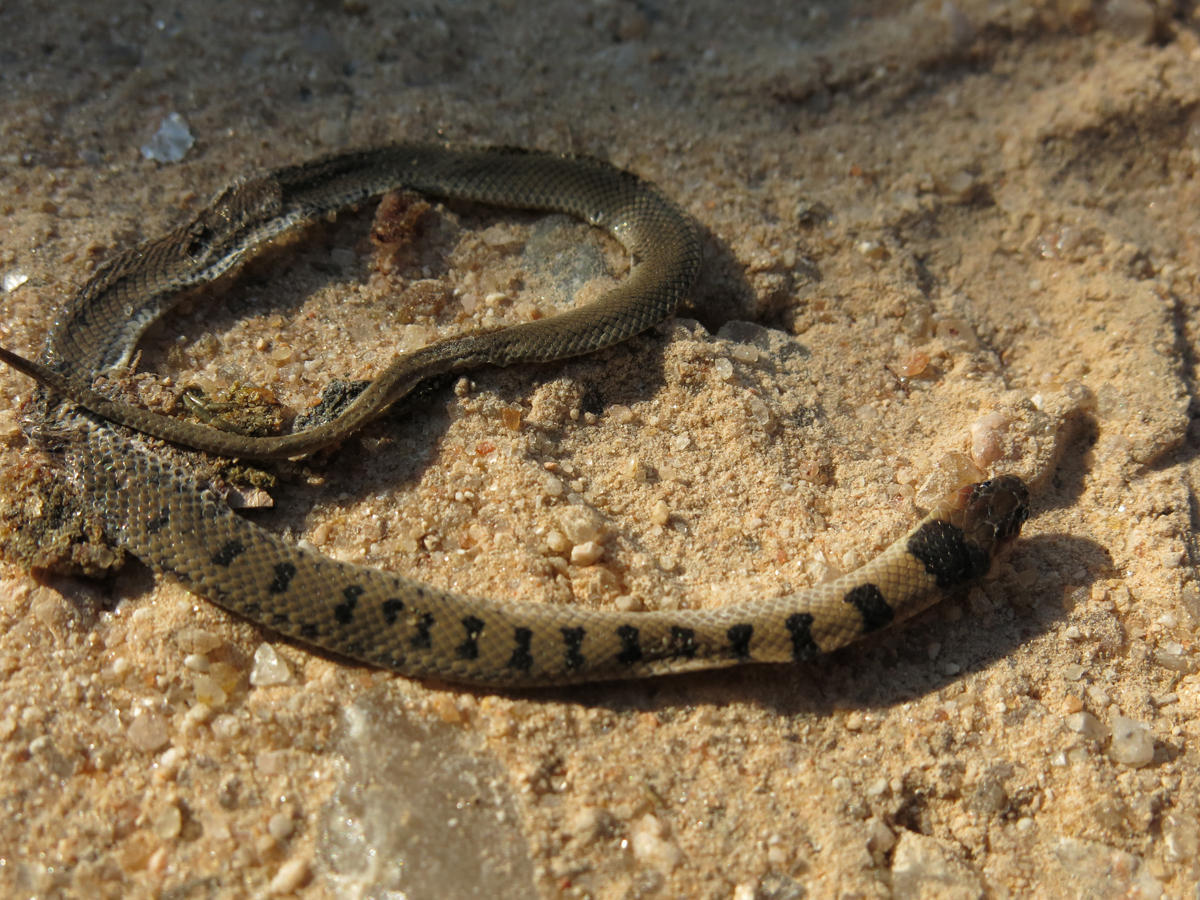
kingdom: Animalia
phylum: Chordata
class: Squamata
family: Atractaspididae
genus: Aparallactus
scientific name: Aparallactus lunulatus
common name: Plumbeous centipede eater
